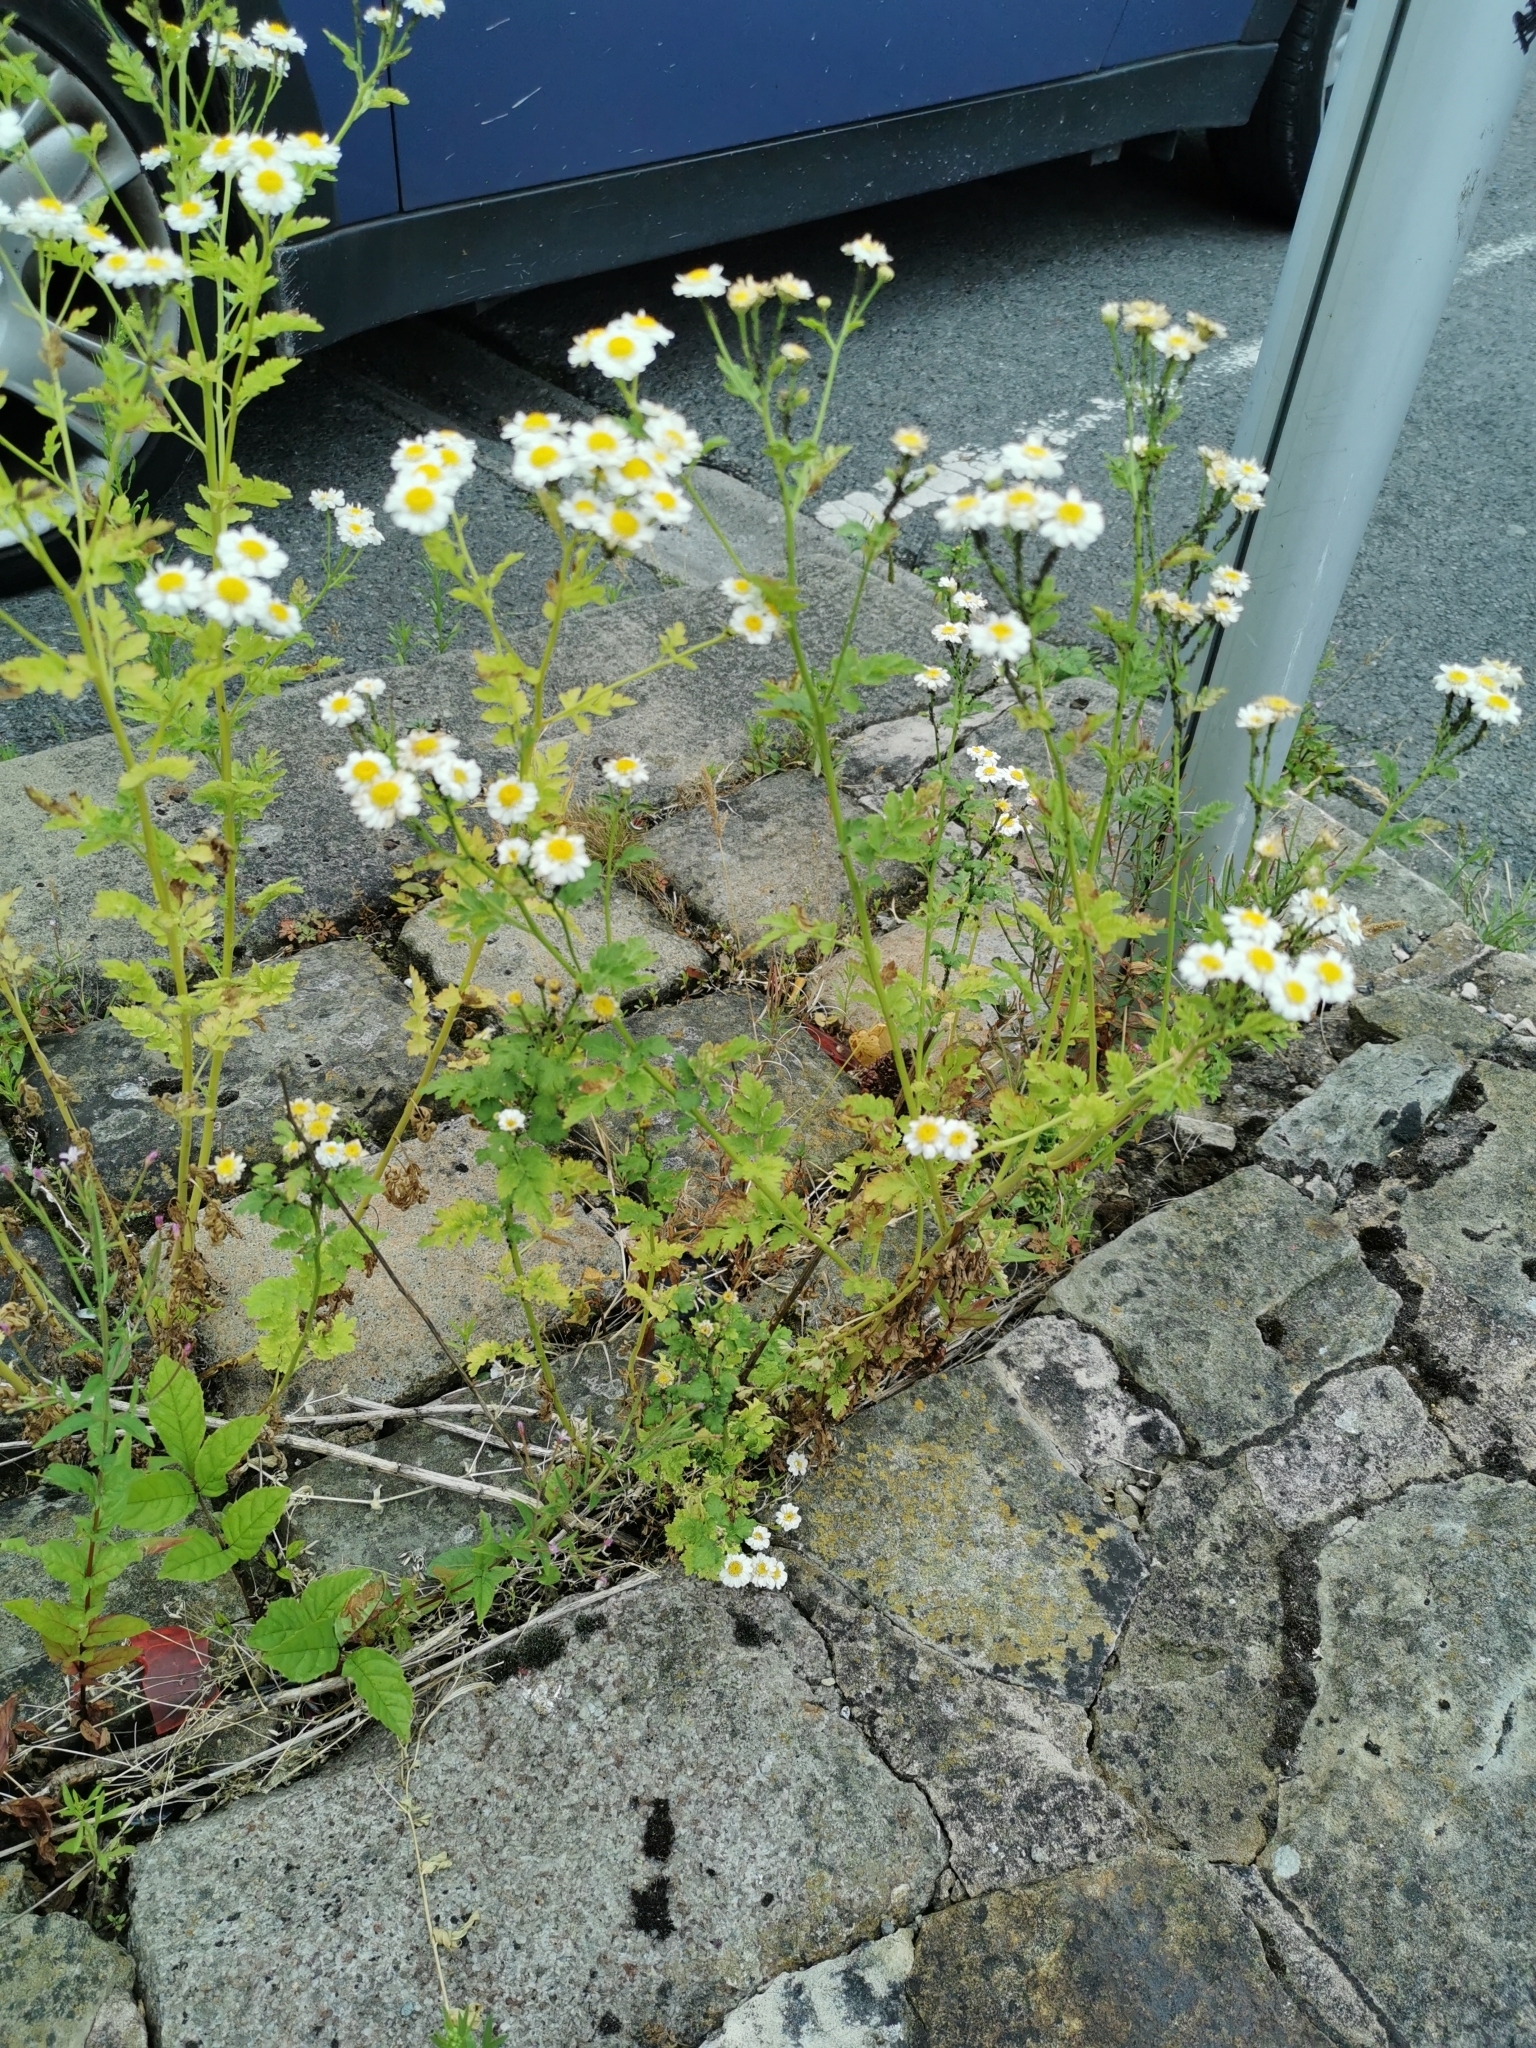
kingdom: Plantae
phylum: Tracheophyta
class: Magnoliopsida
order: Asterales
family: Asteraceae
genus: Tanacetum
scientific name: Tanacetum parthenium
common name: Feverfew
